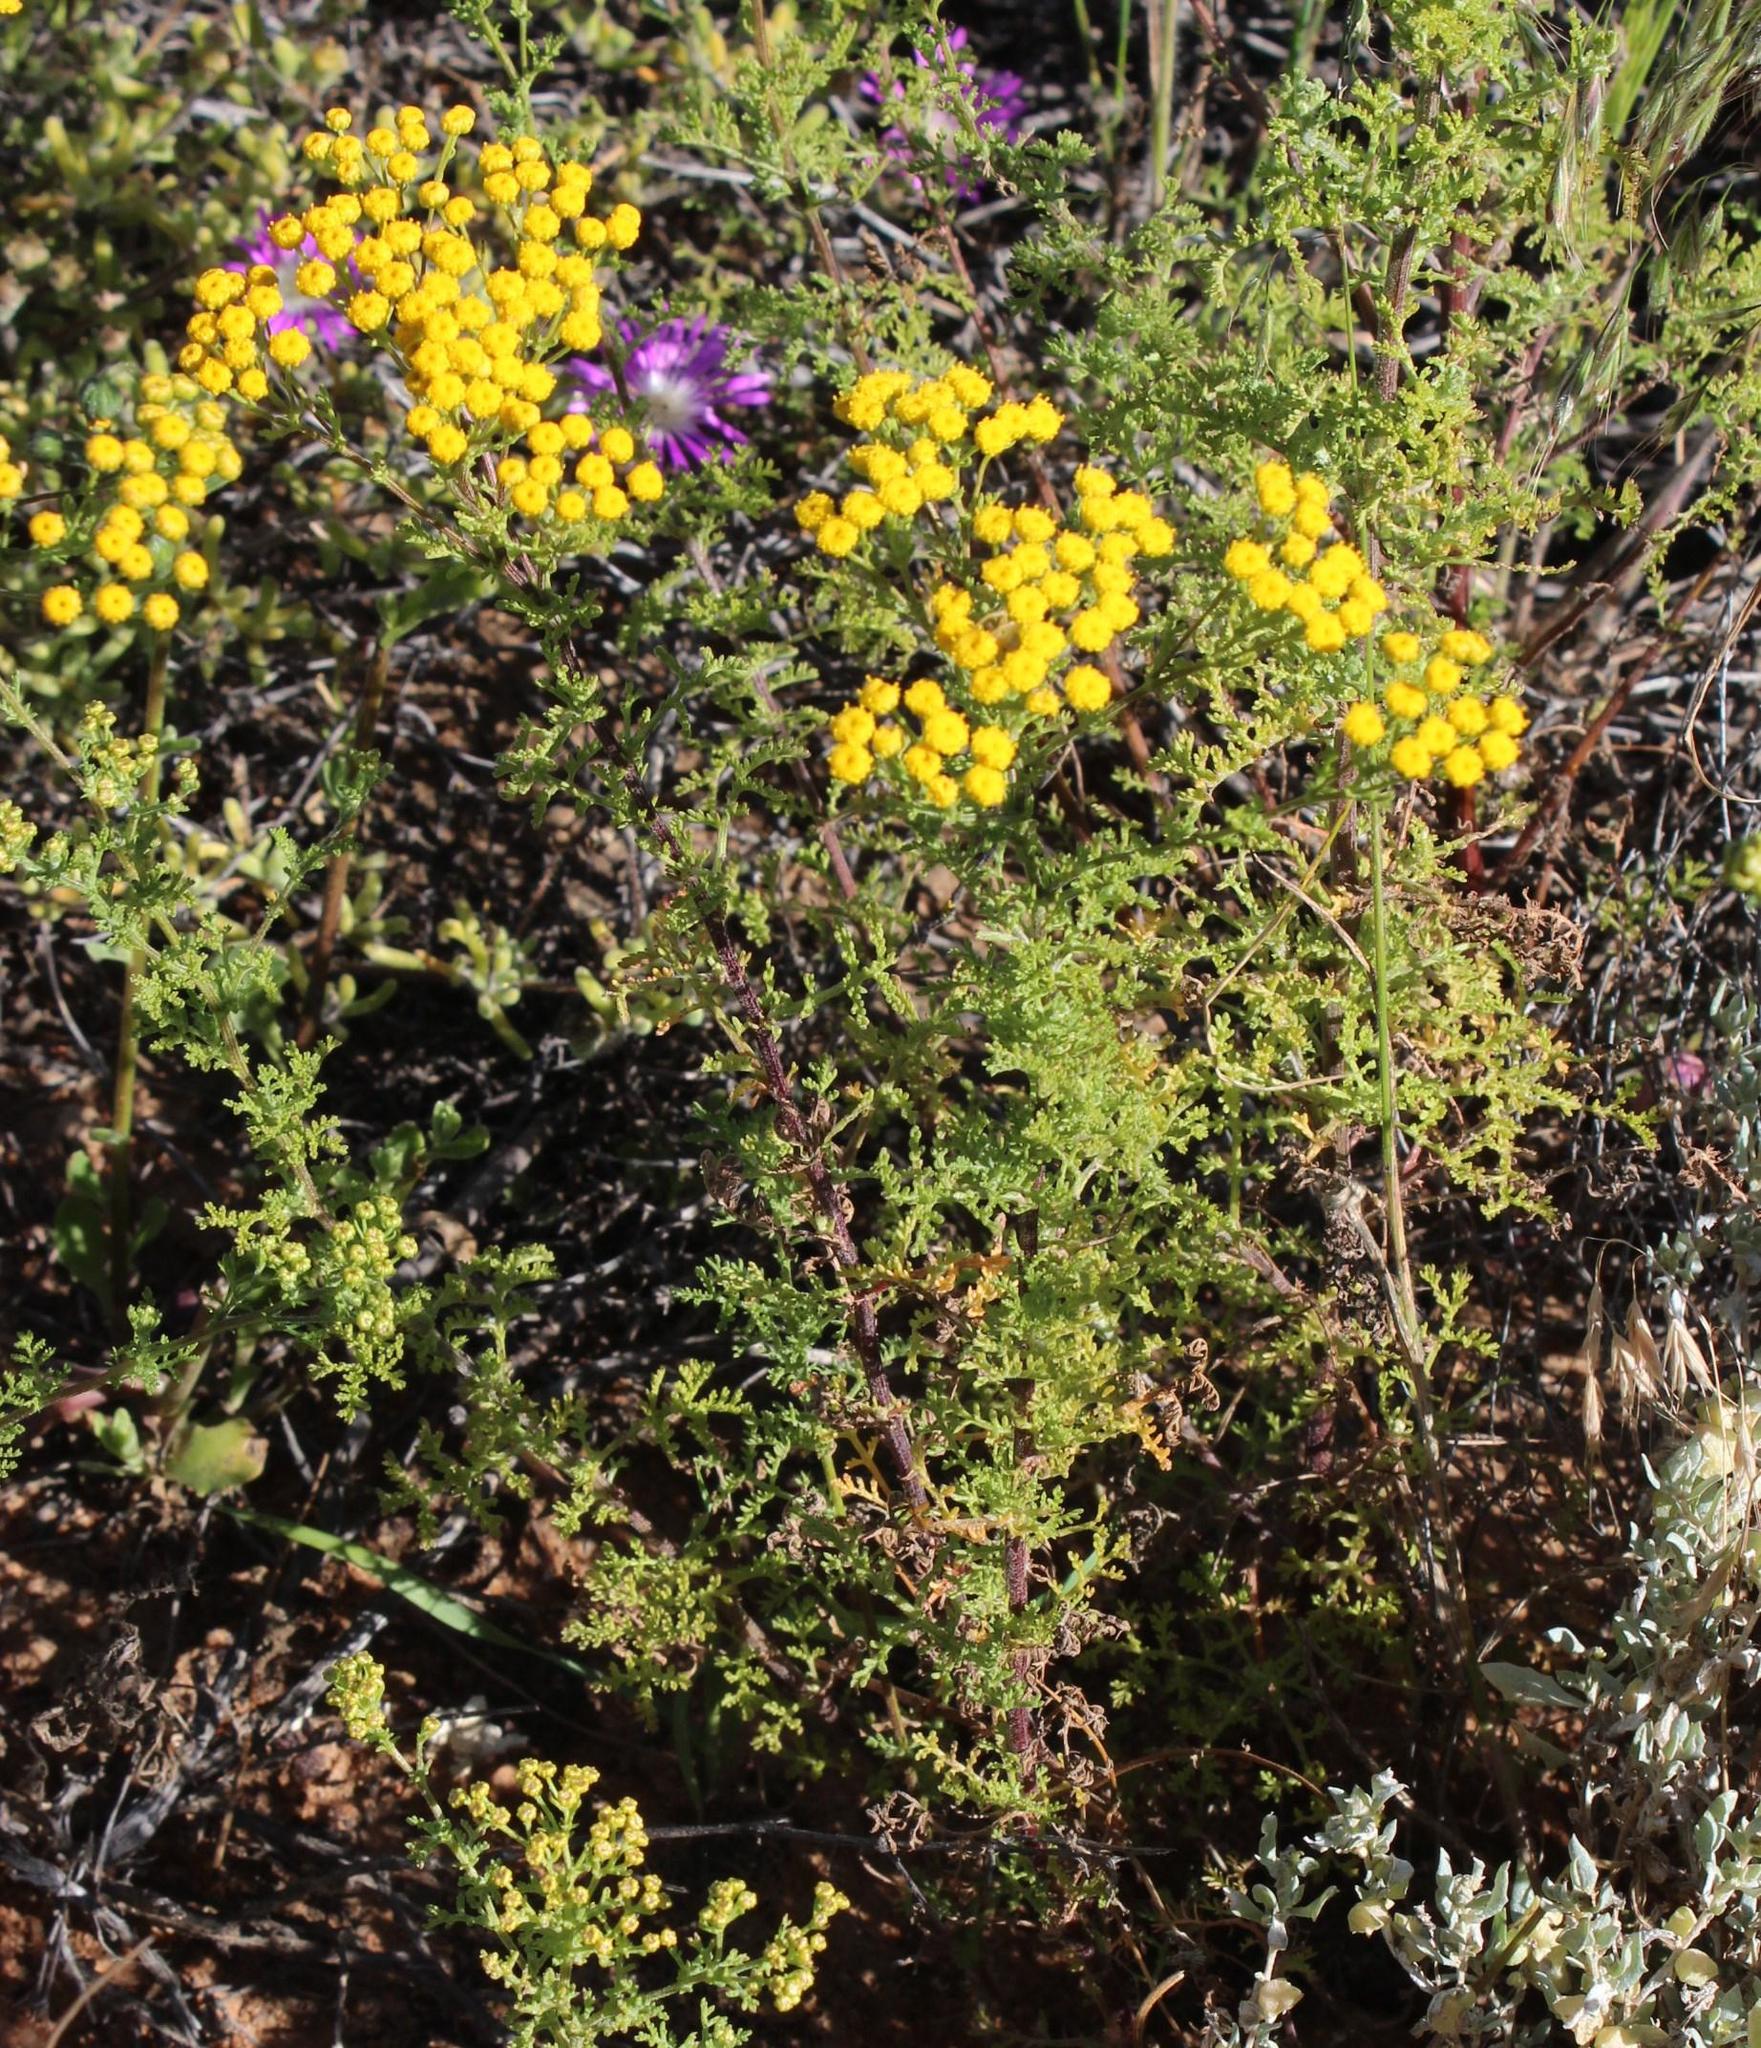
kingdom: Plantae
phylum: Tracheophyta
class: Magnoliopsida
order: Asterales
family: Asteraceae
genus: Oncosiphon
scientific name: Oncosiphon suffruticosus
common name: Shrubby mayweed
